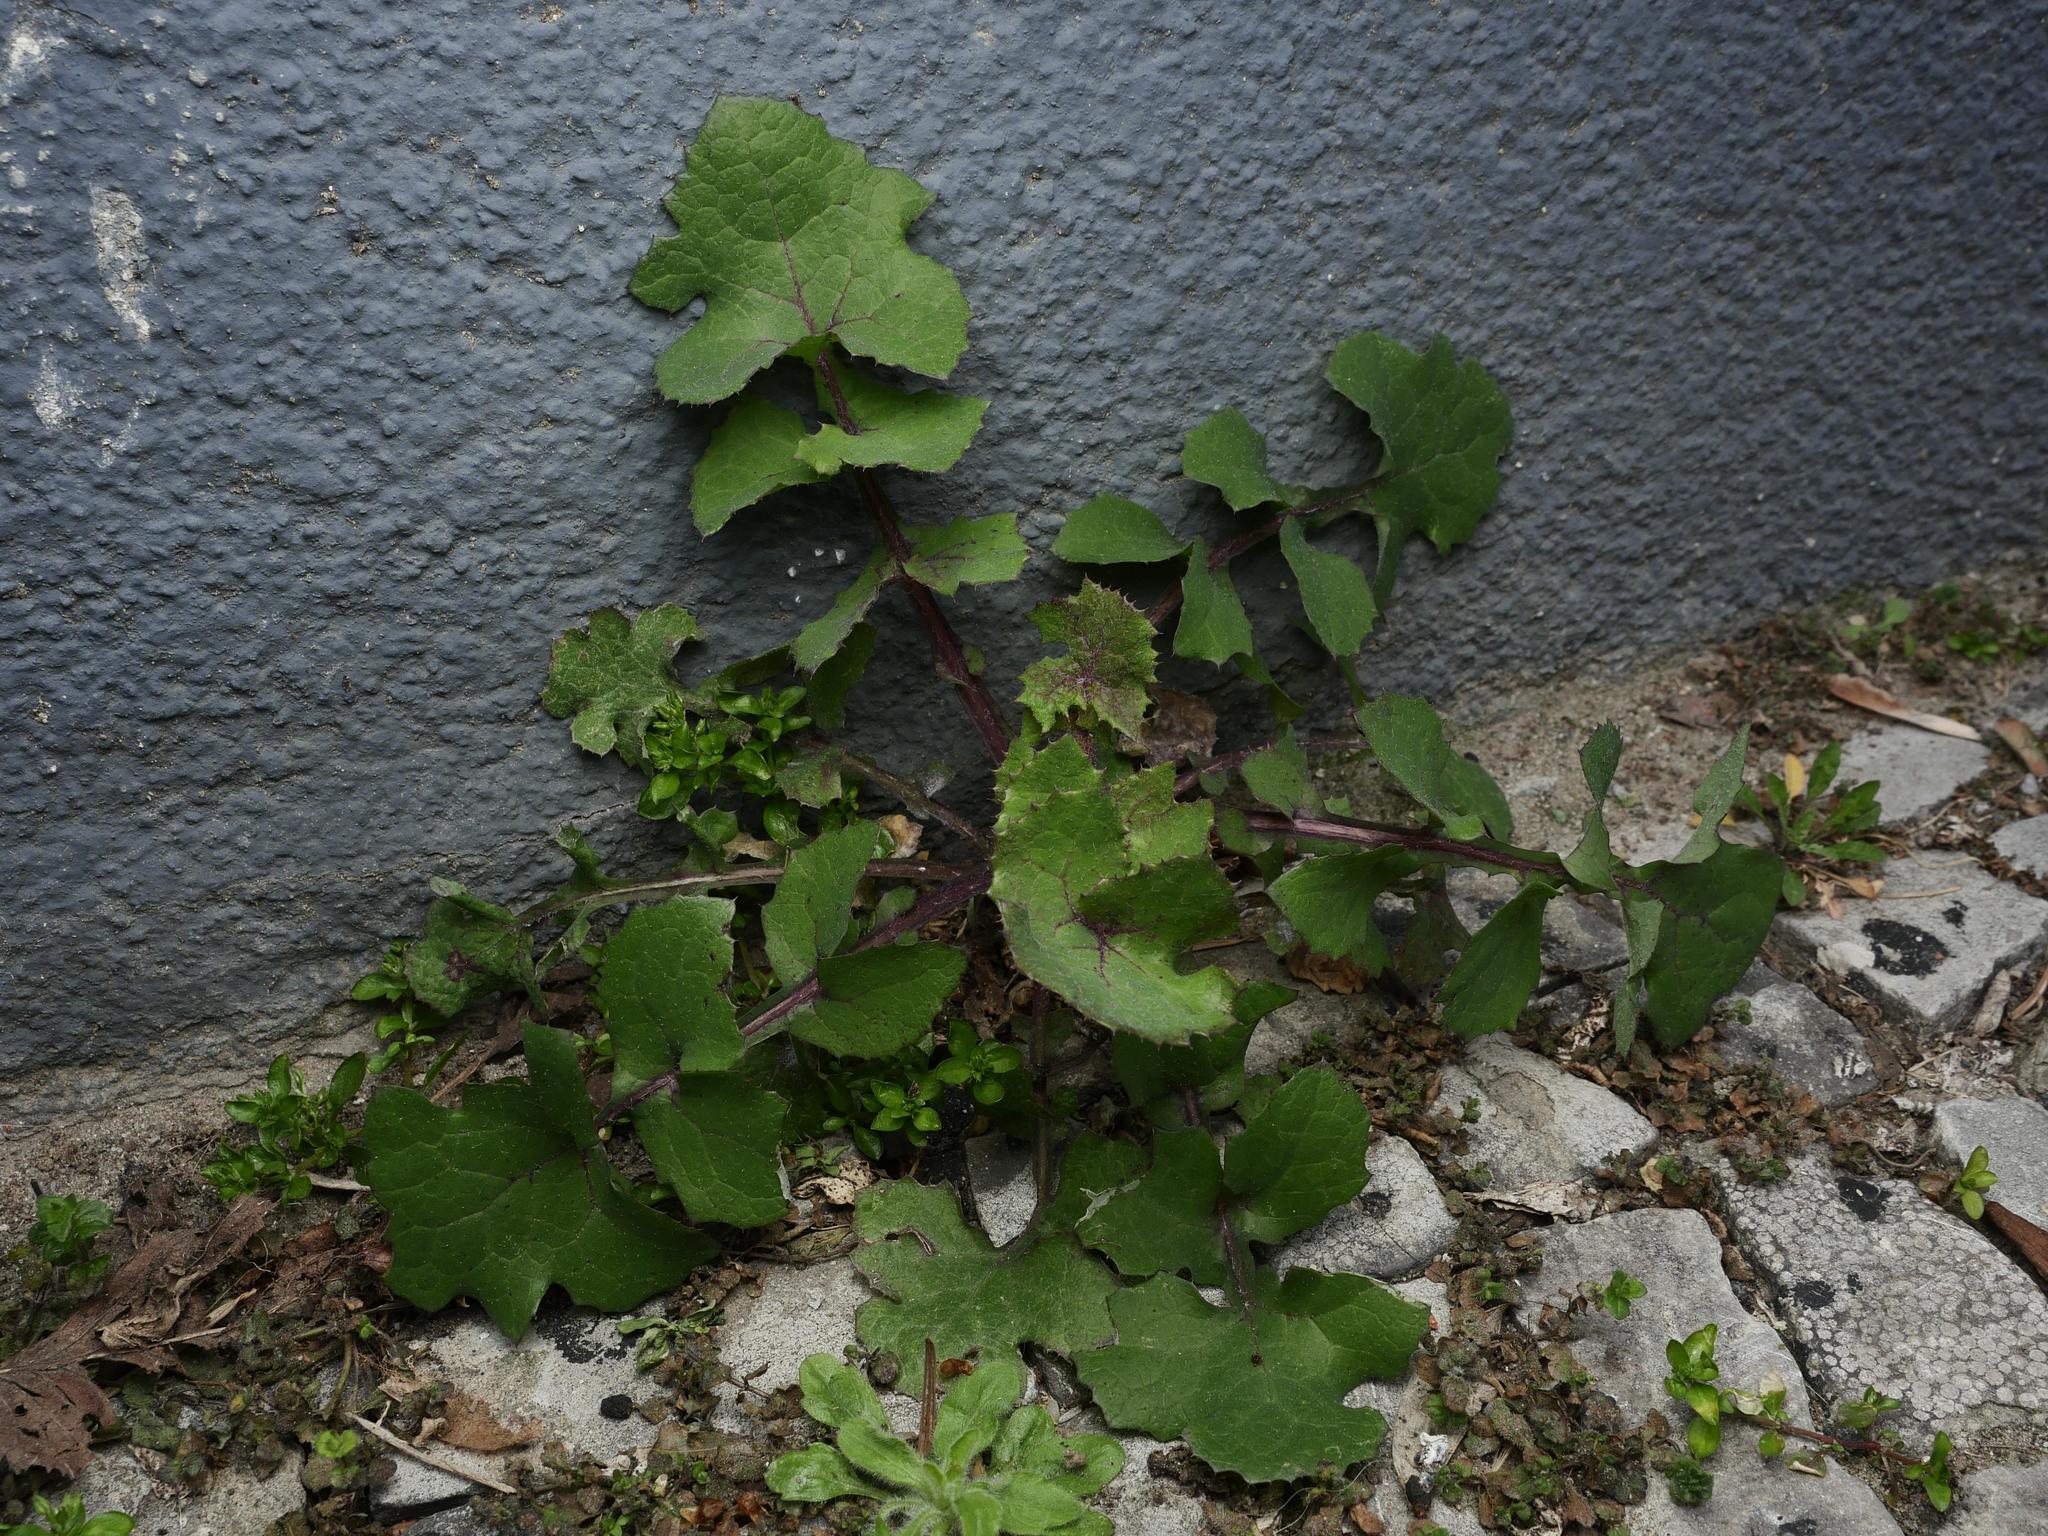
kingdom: Plantae
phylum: Tracheophyta
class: Magnoliopsida
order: Asterales
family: Asteraceae
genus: Sonchus
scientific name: Sonchus oleraceus
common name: Common sowthistle
